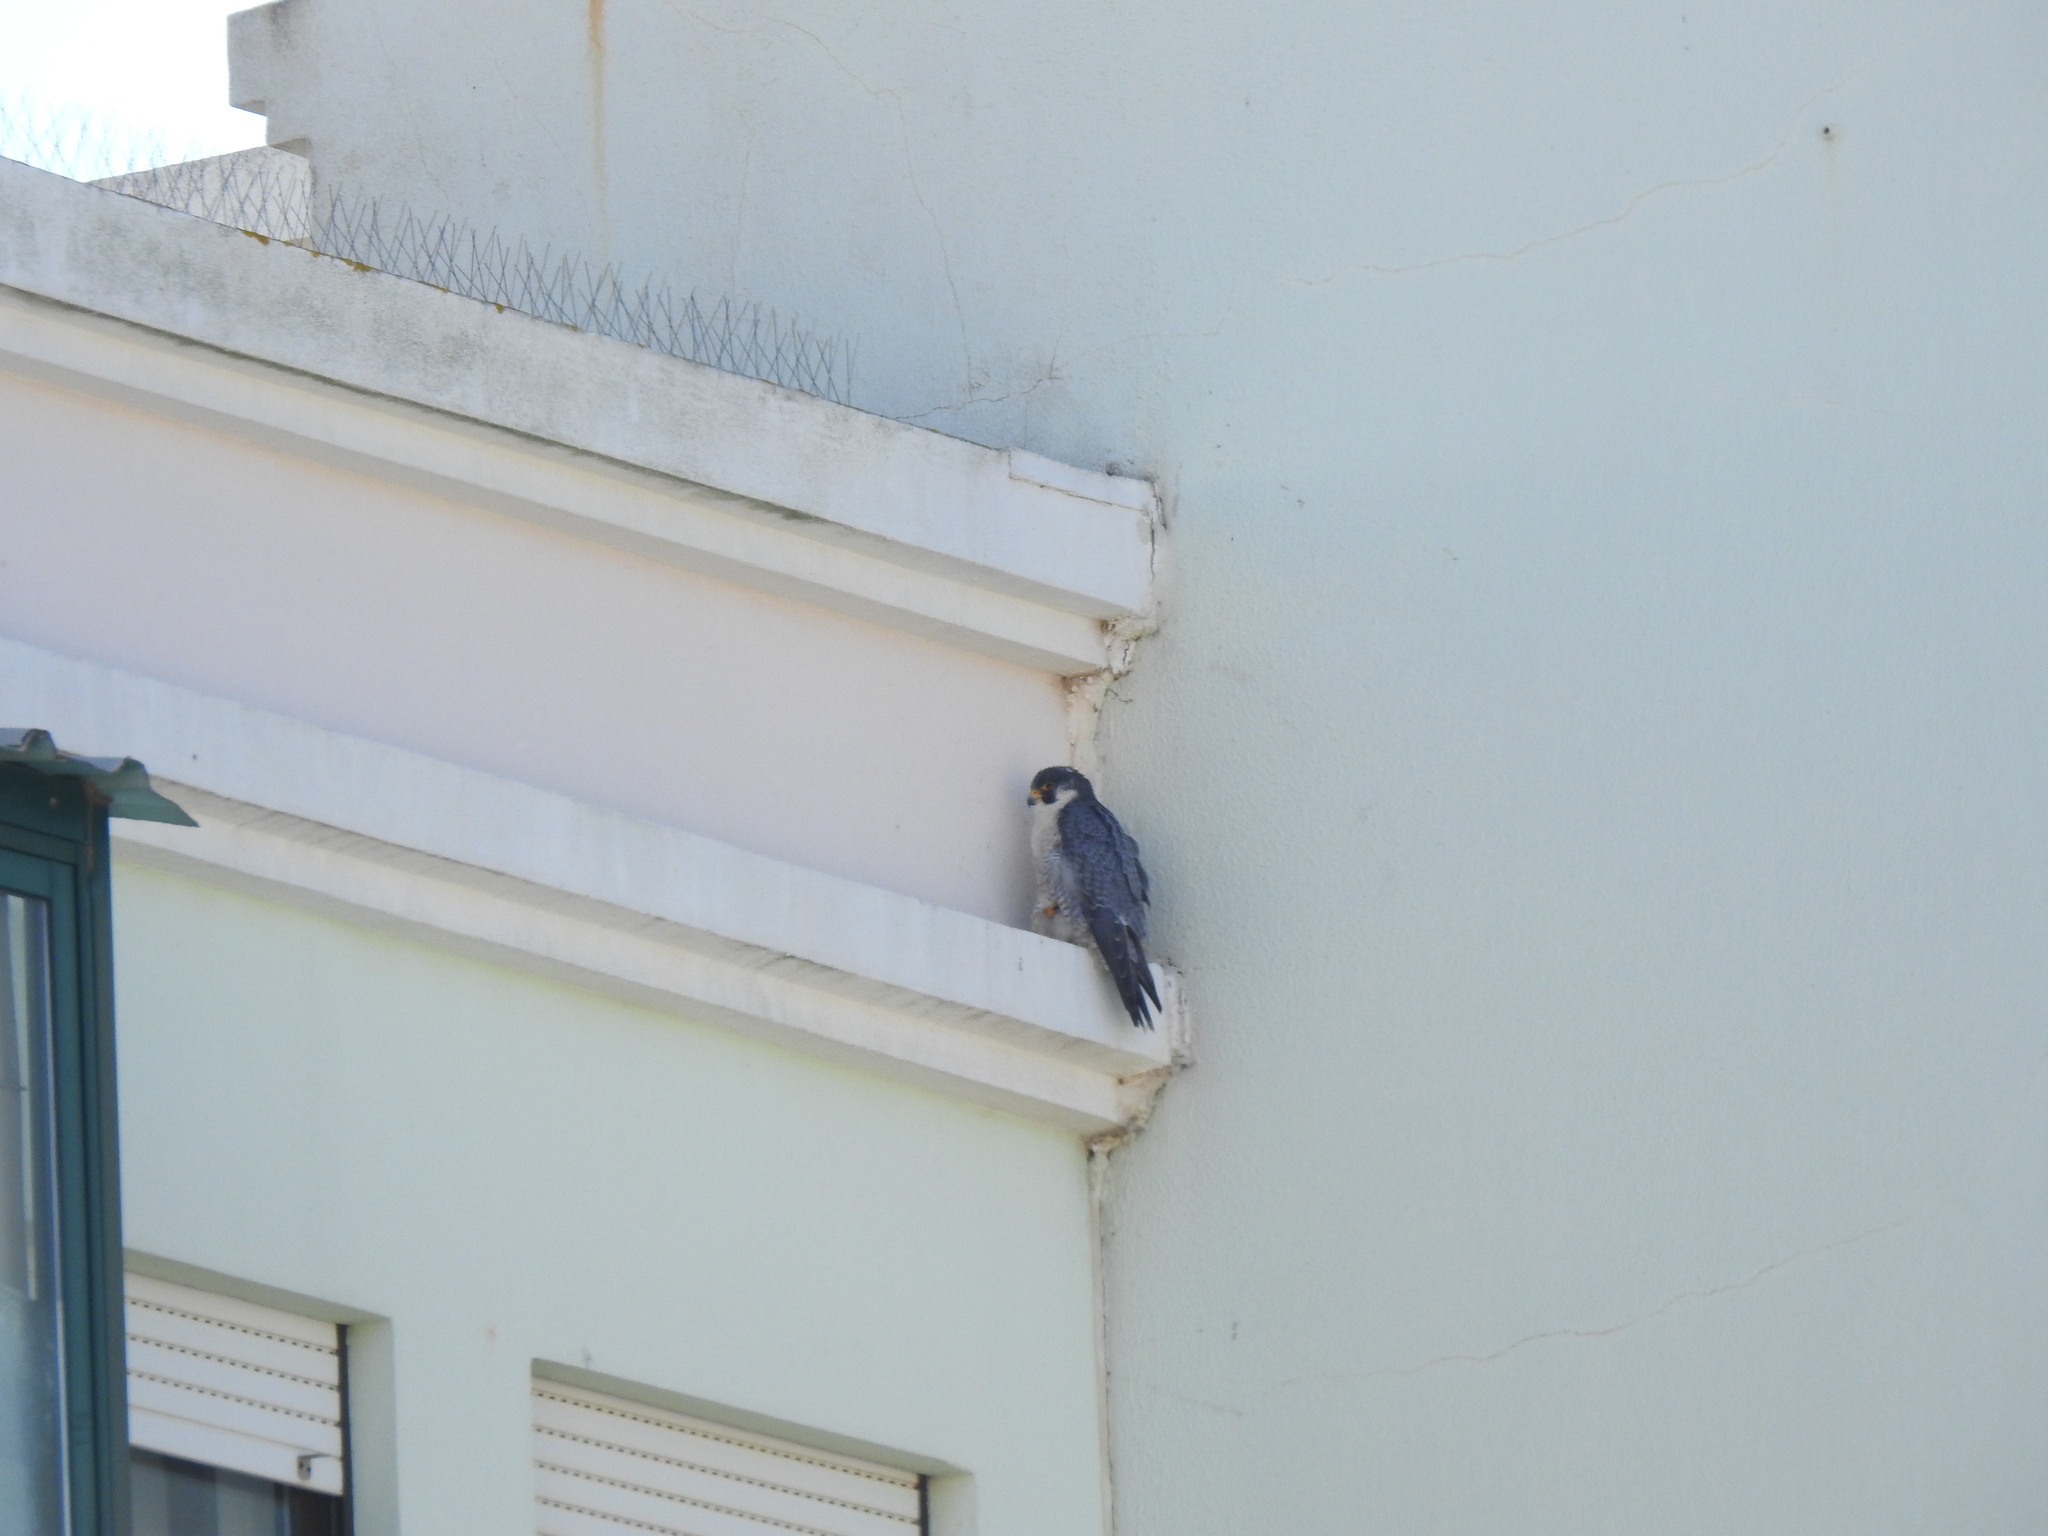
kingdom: Animalia
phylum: Chordata
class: Aves
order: Falconiformes
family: Falconidae
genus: Falco
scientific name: Falco peregrinus
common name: Peregrine falcon
